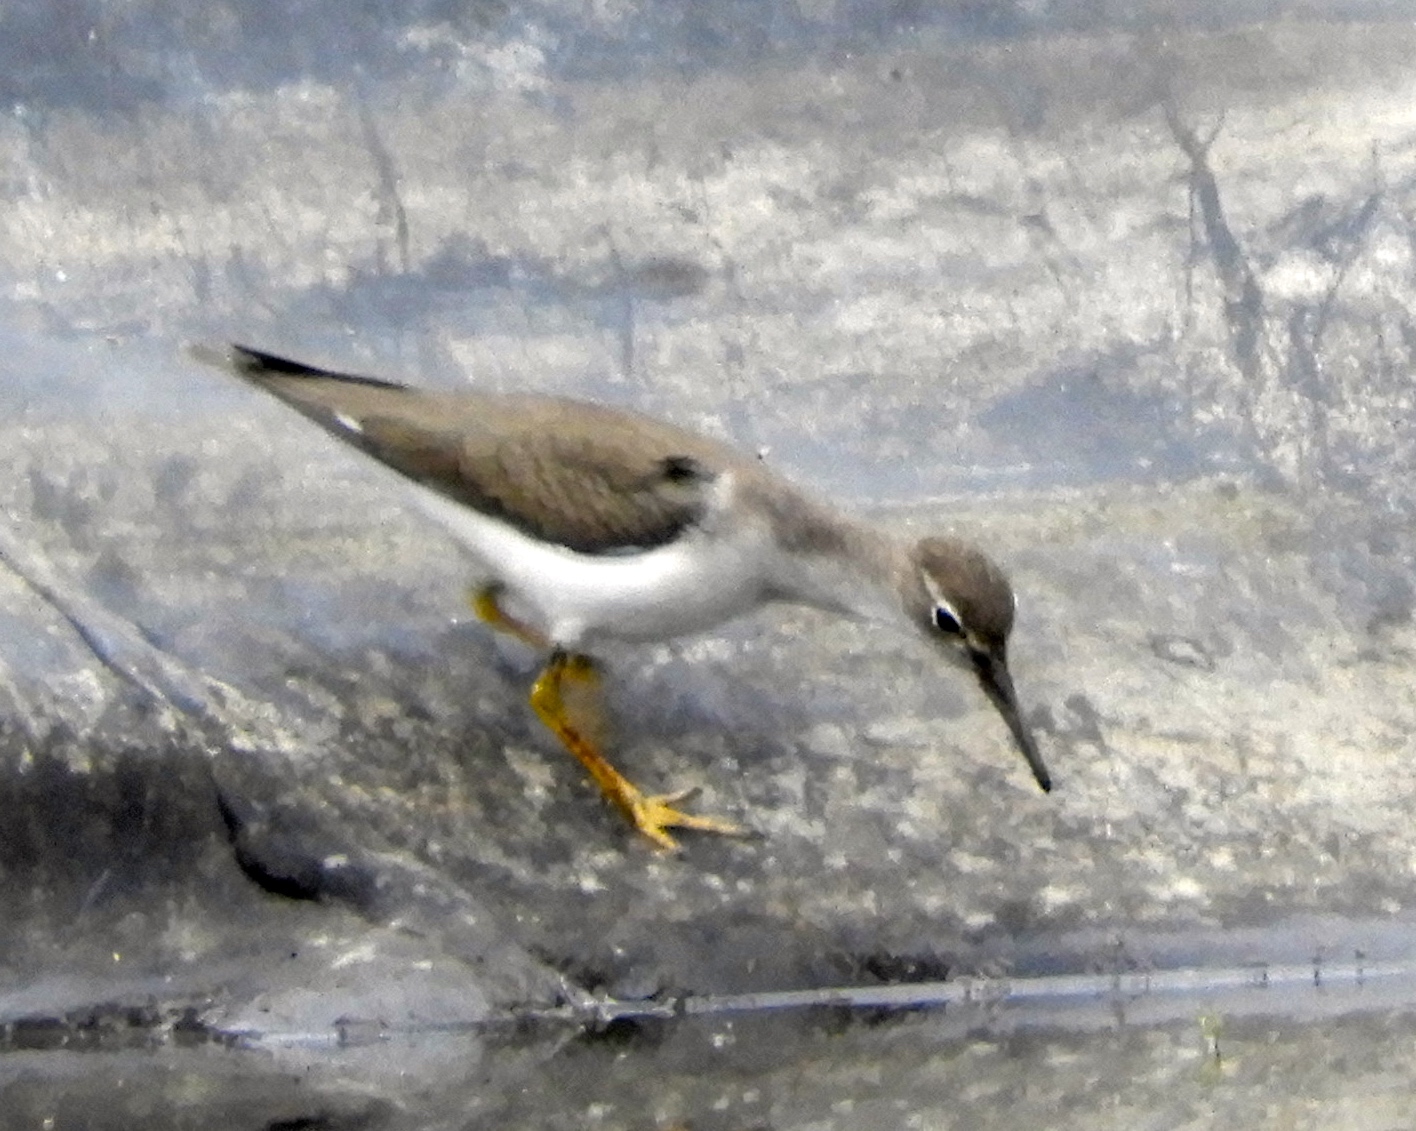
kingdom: Animalia
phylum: Chordata
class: Aves
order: Charadriiformes
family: Scolopacidae
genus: Actitis
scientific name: Actitis macularius
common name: Spotted sandpiper
